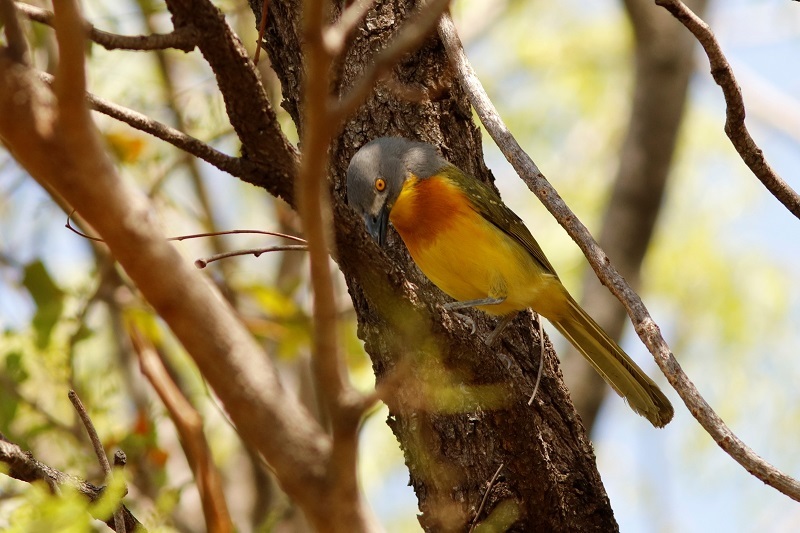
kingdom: Animalia
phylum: Chordata
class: Aves
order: Passeriformes
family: Malaconotidae
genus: Malaconotus
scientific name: Malaconotus blanchoti
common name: Grey-headed bushshrike
